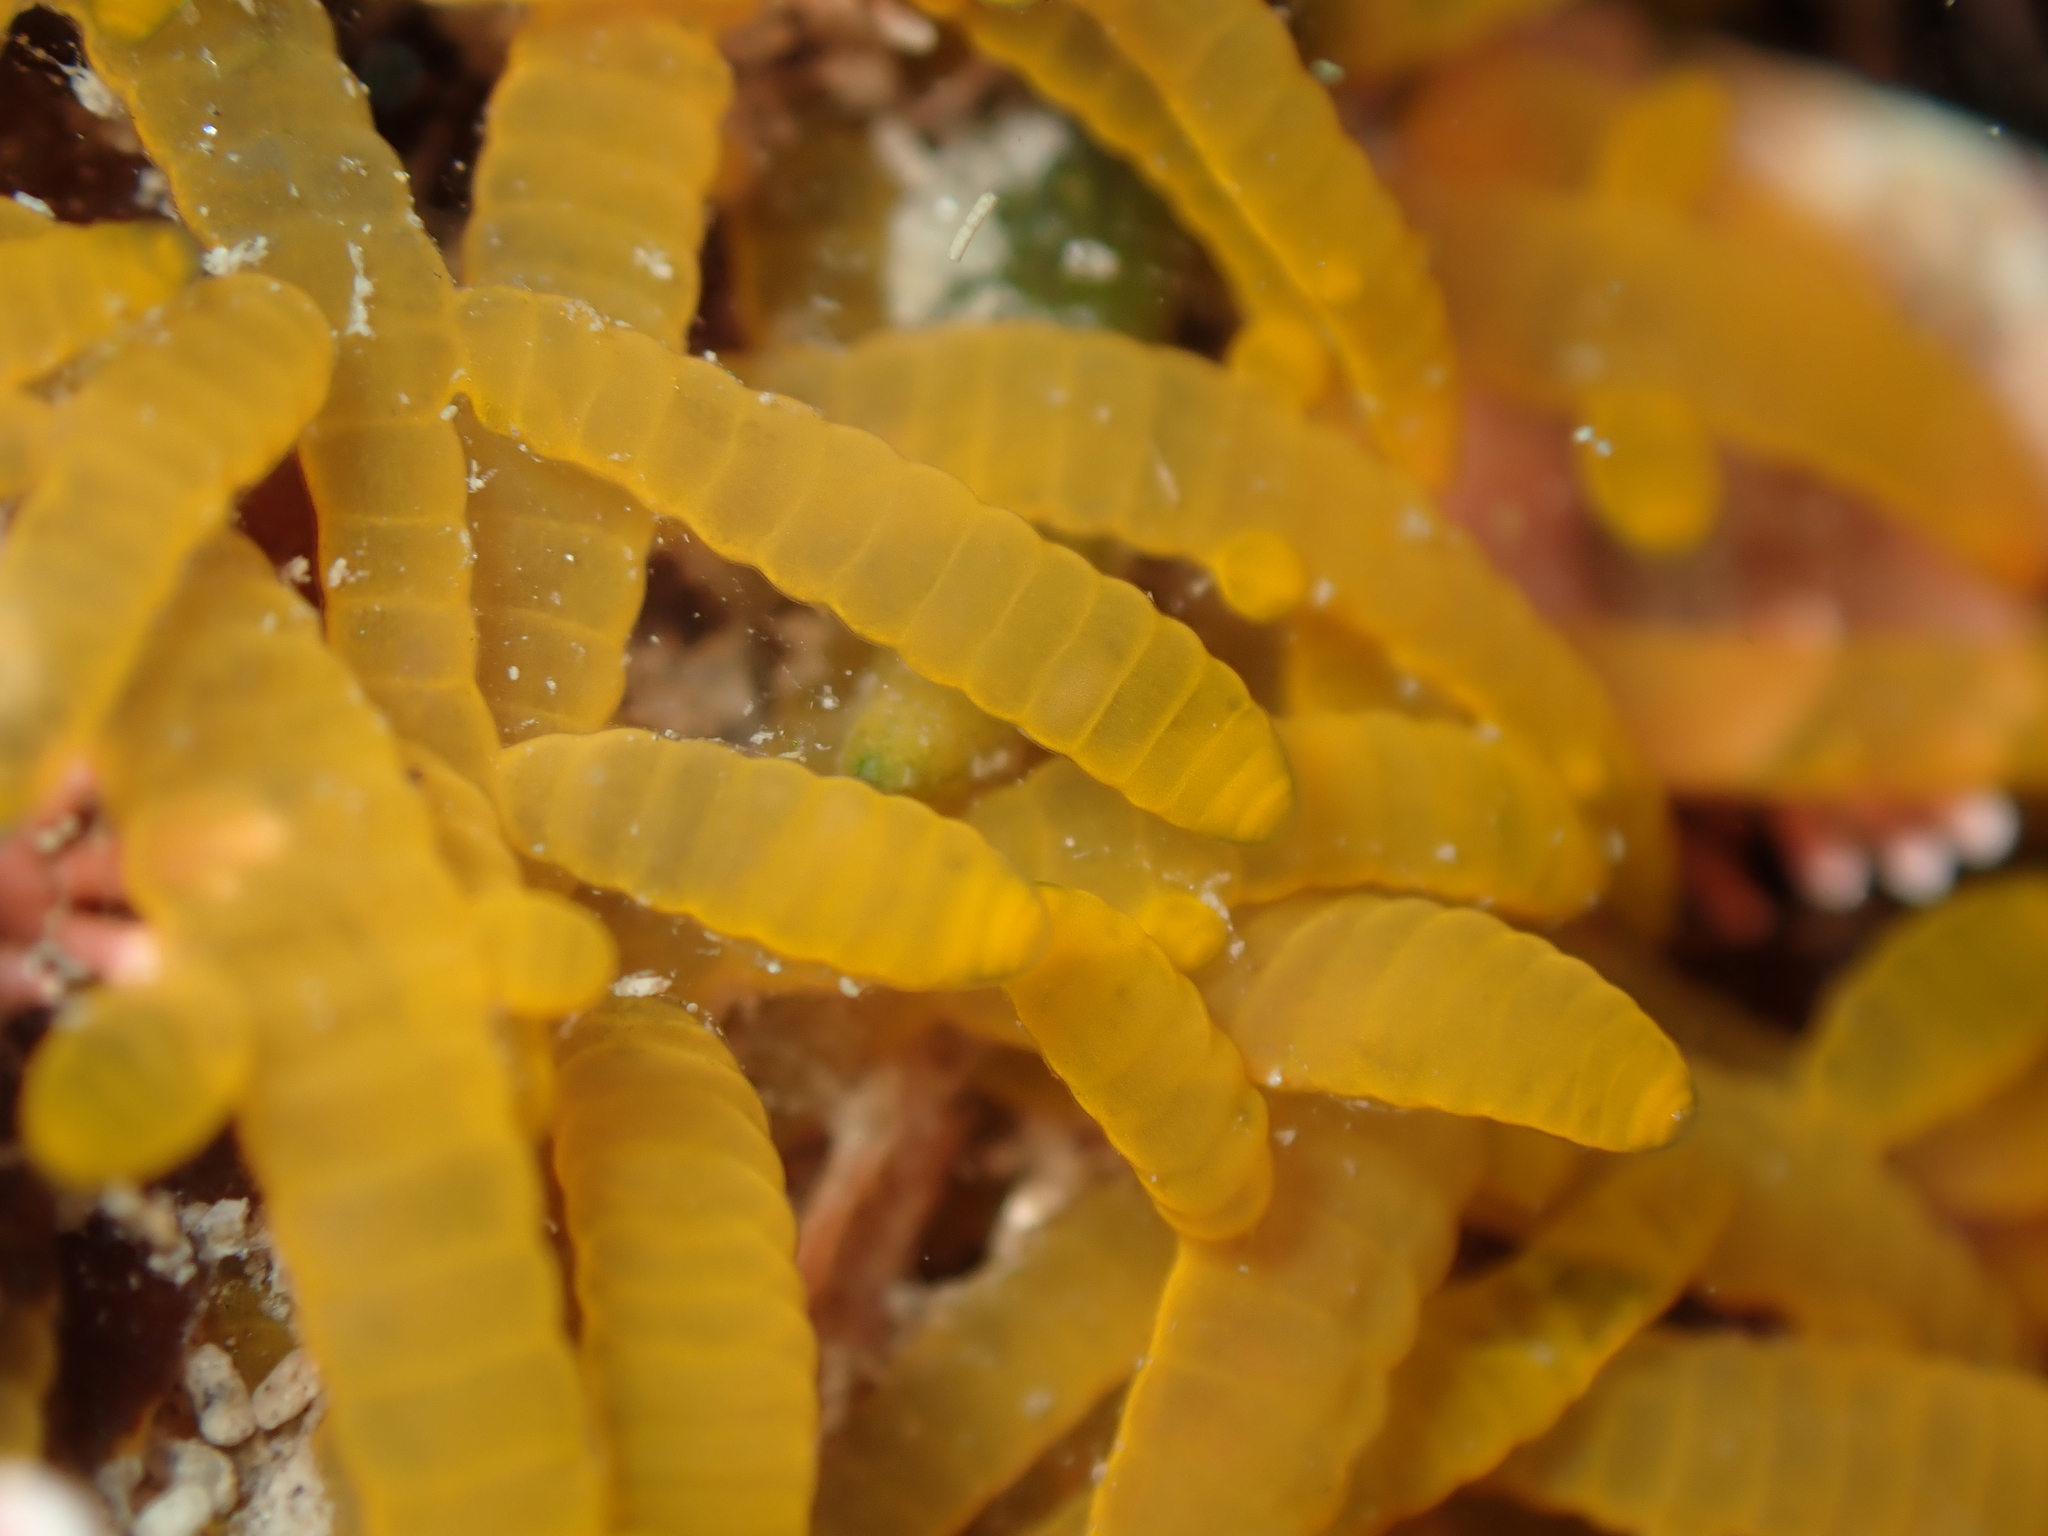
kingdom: Plantae
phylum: Rhodophyta
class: Florideophyceae
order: Rhodymeniales
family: Champiaceae
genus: Champia
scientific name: Champia laingii
